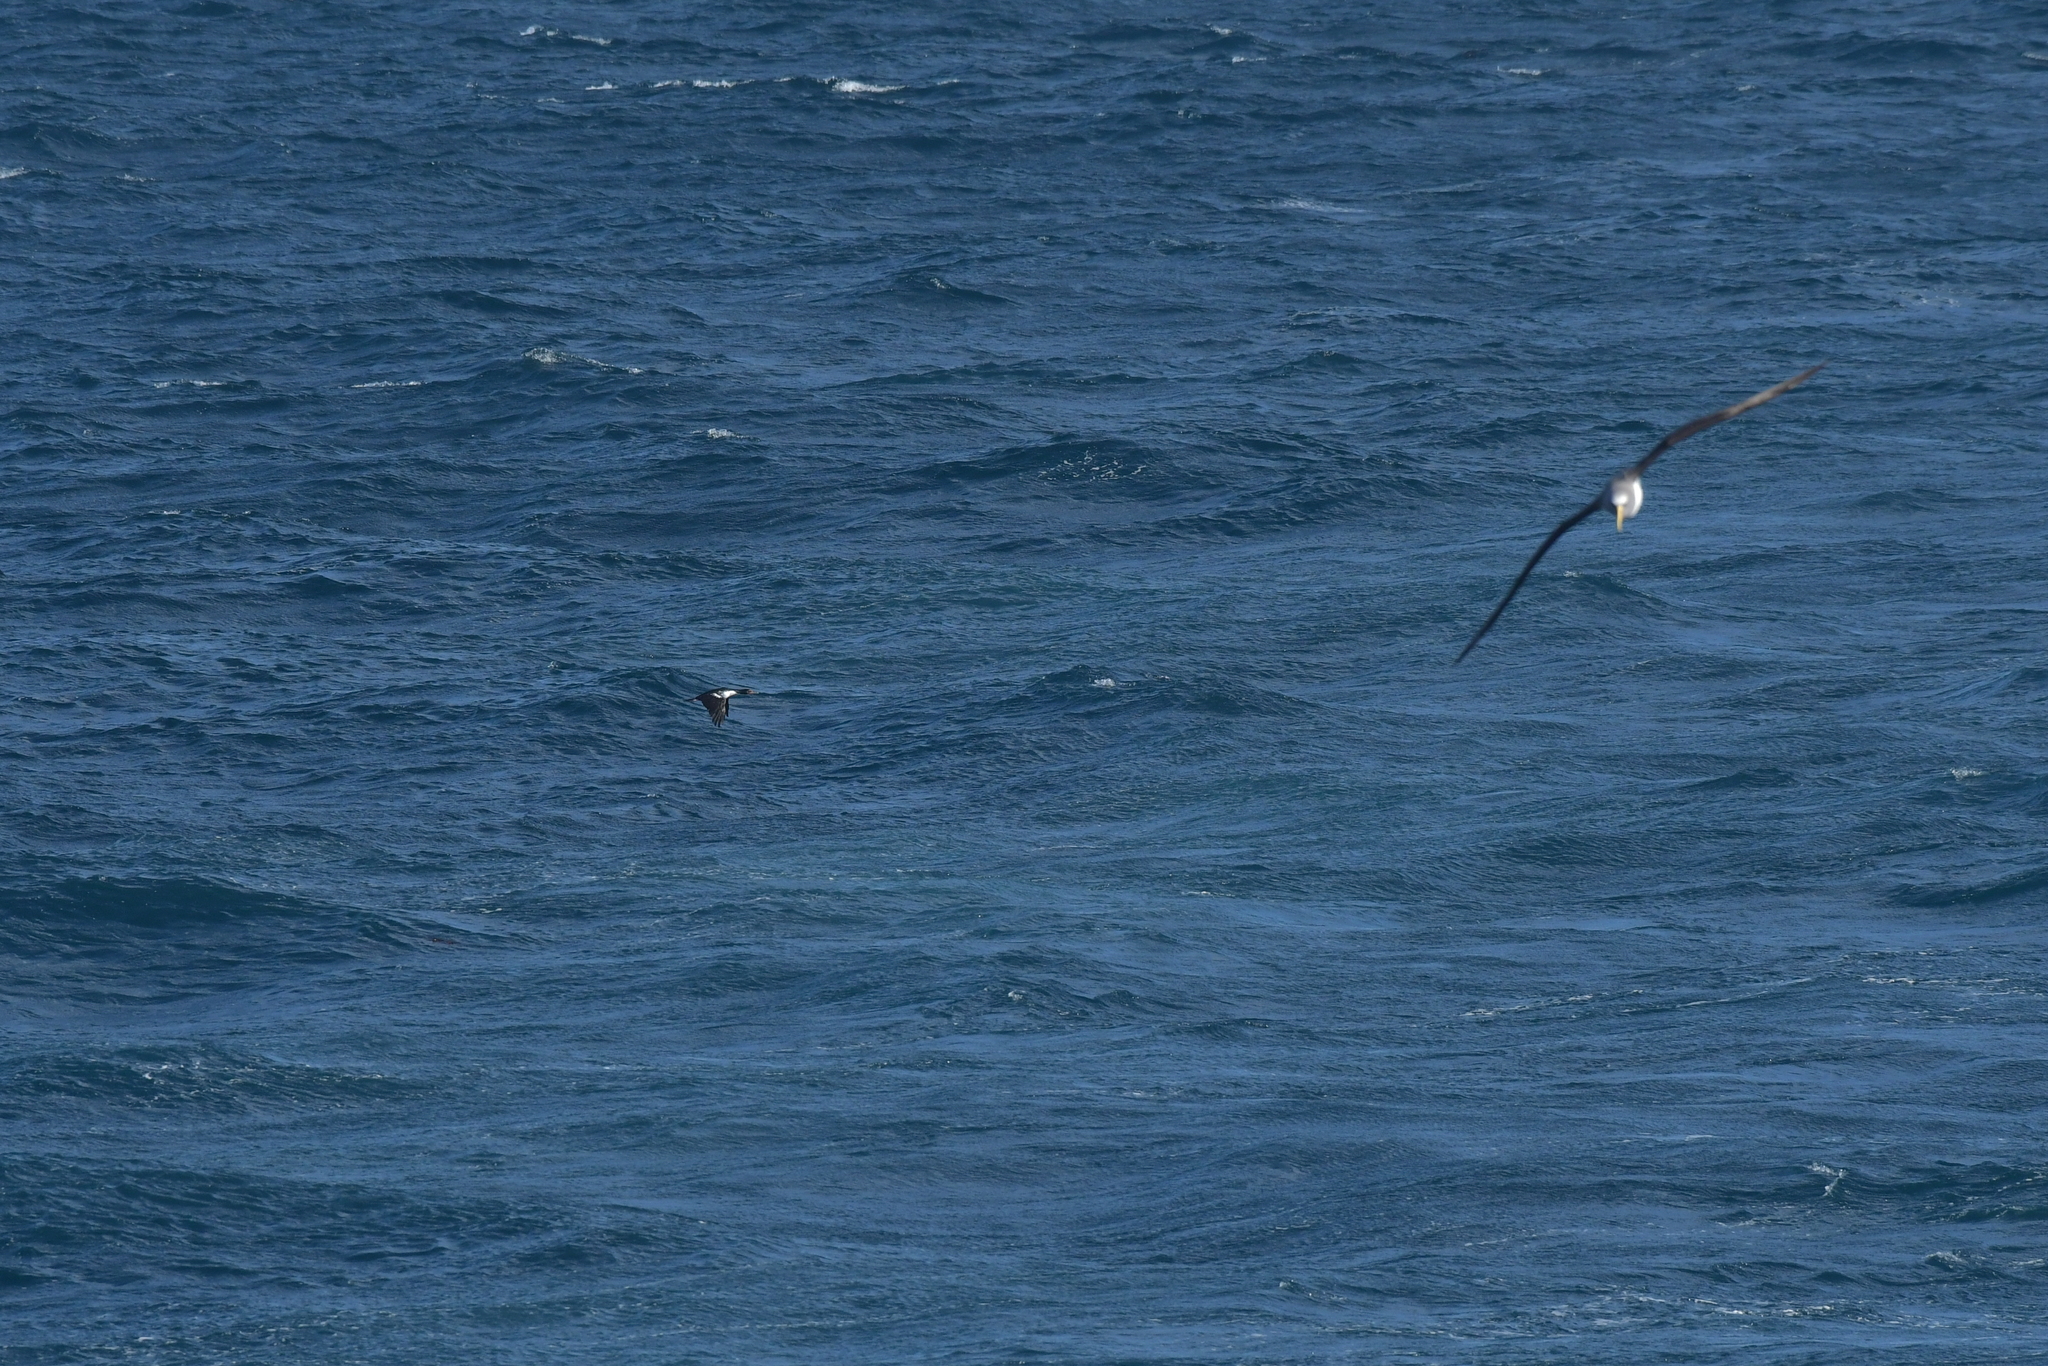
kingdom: Animalia
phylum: Chordata
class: Aves
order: Suliformes
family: Phalacrocoracidae
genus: Leucocarbo
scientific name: Leucocarbo onslowi
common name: Chatham shag
